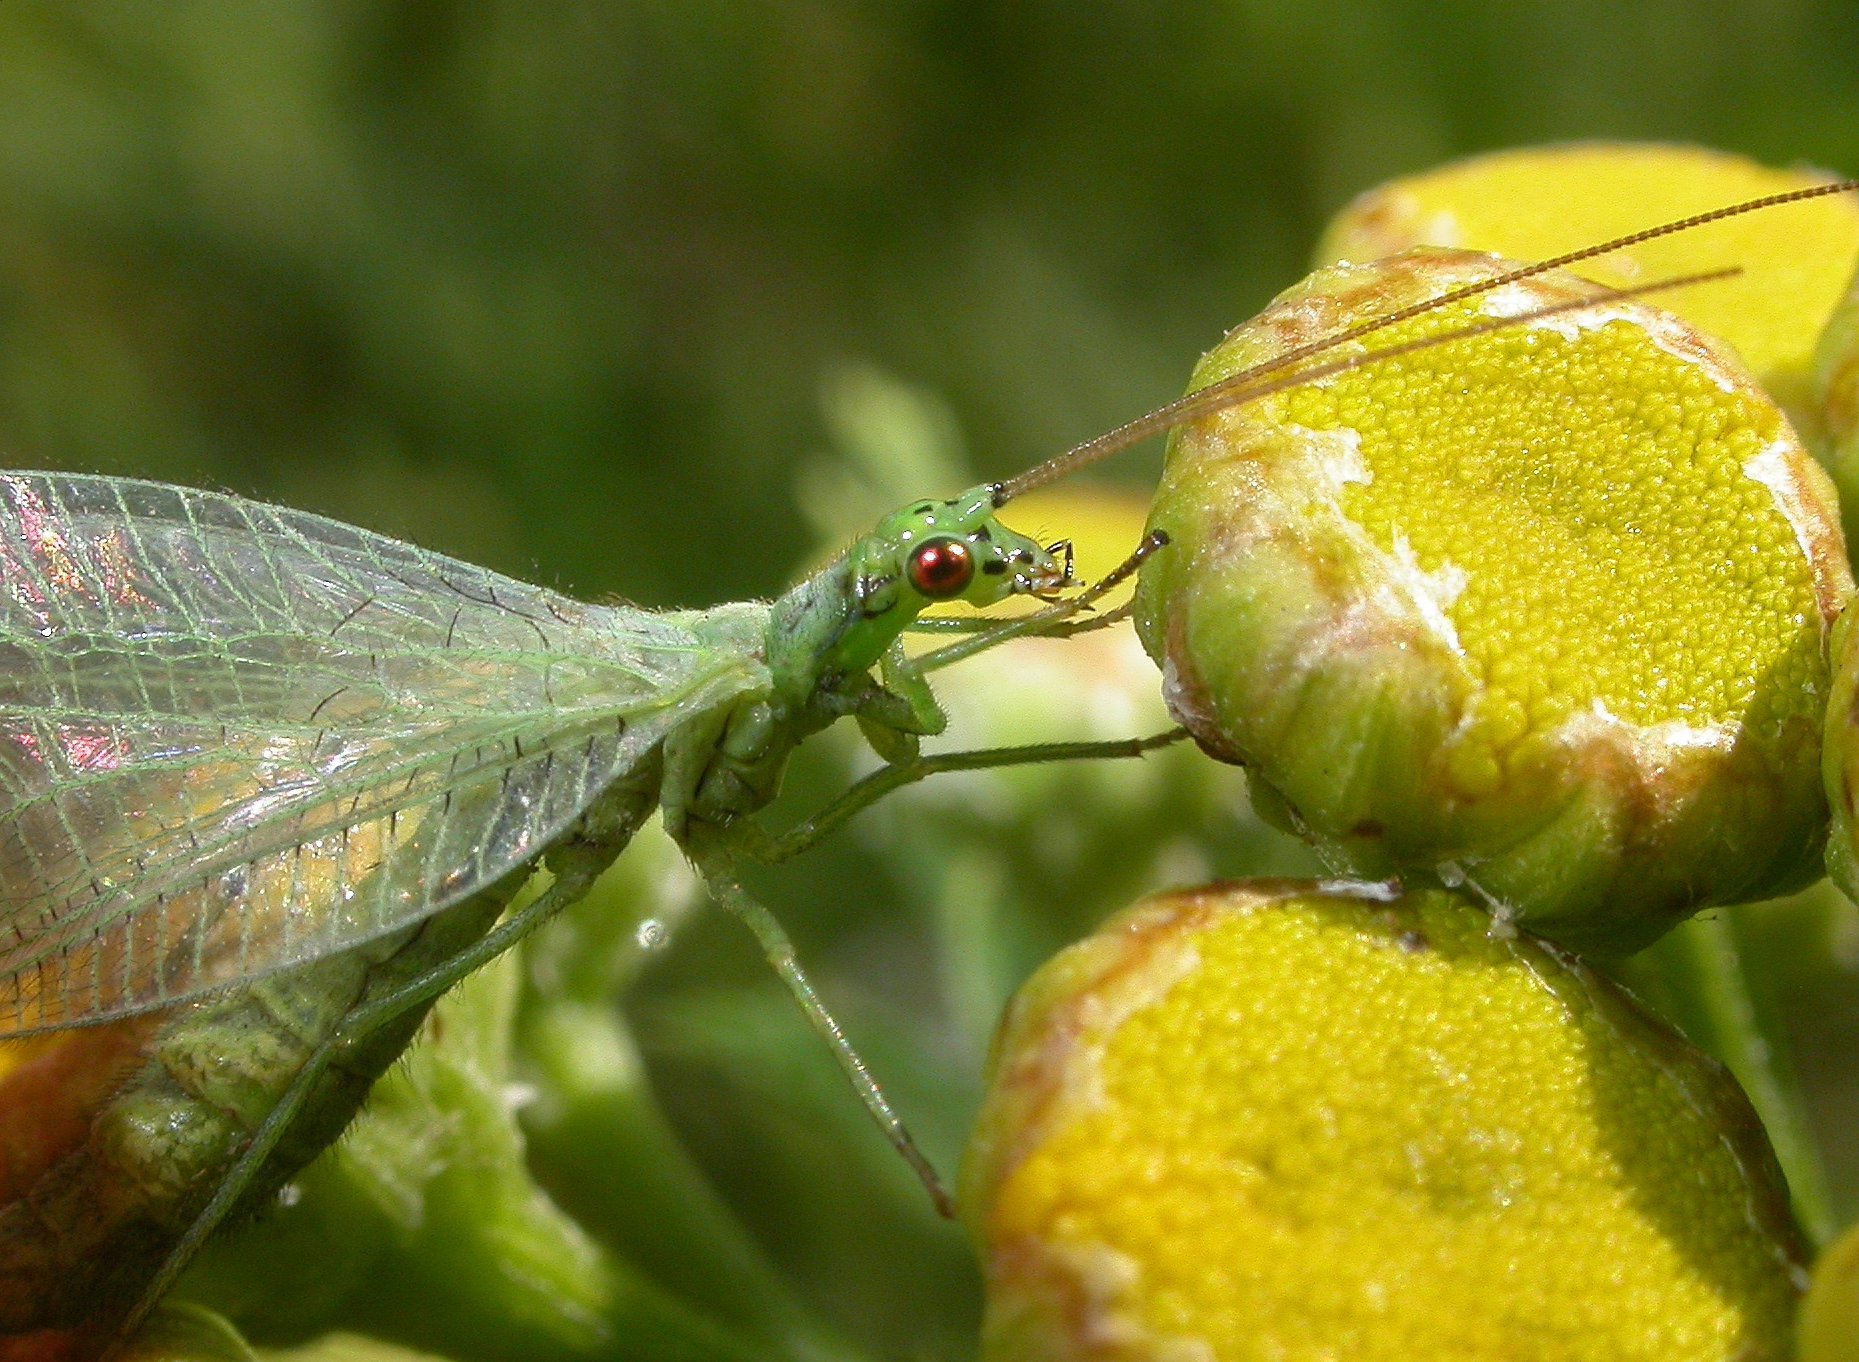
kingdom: Animalia
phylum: Arthropoda
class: Insecta
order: Neuroptera
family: Chrysopidae
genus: Chrysopa
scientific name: Chrysopa phyllochroma
